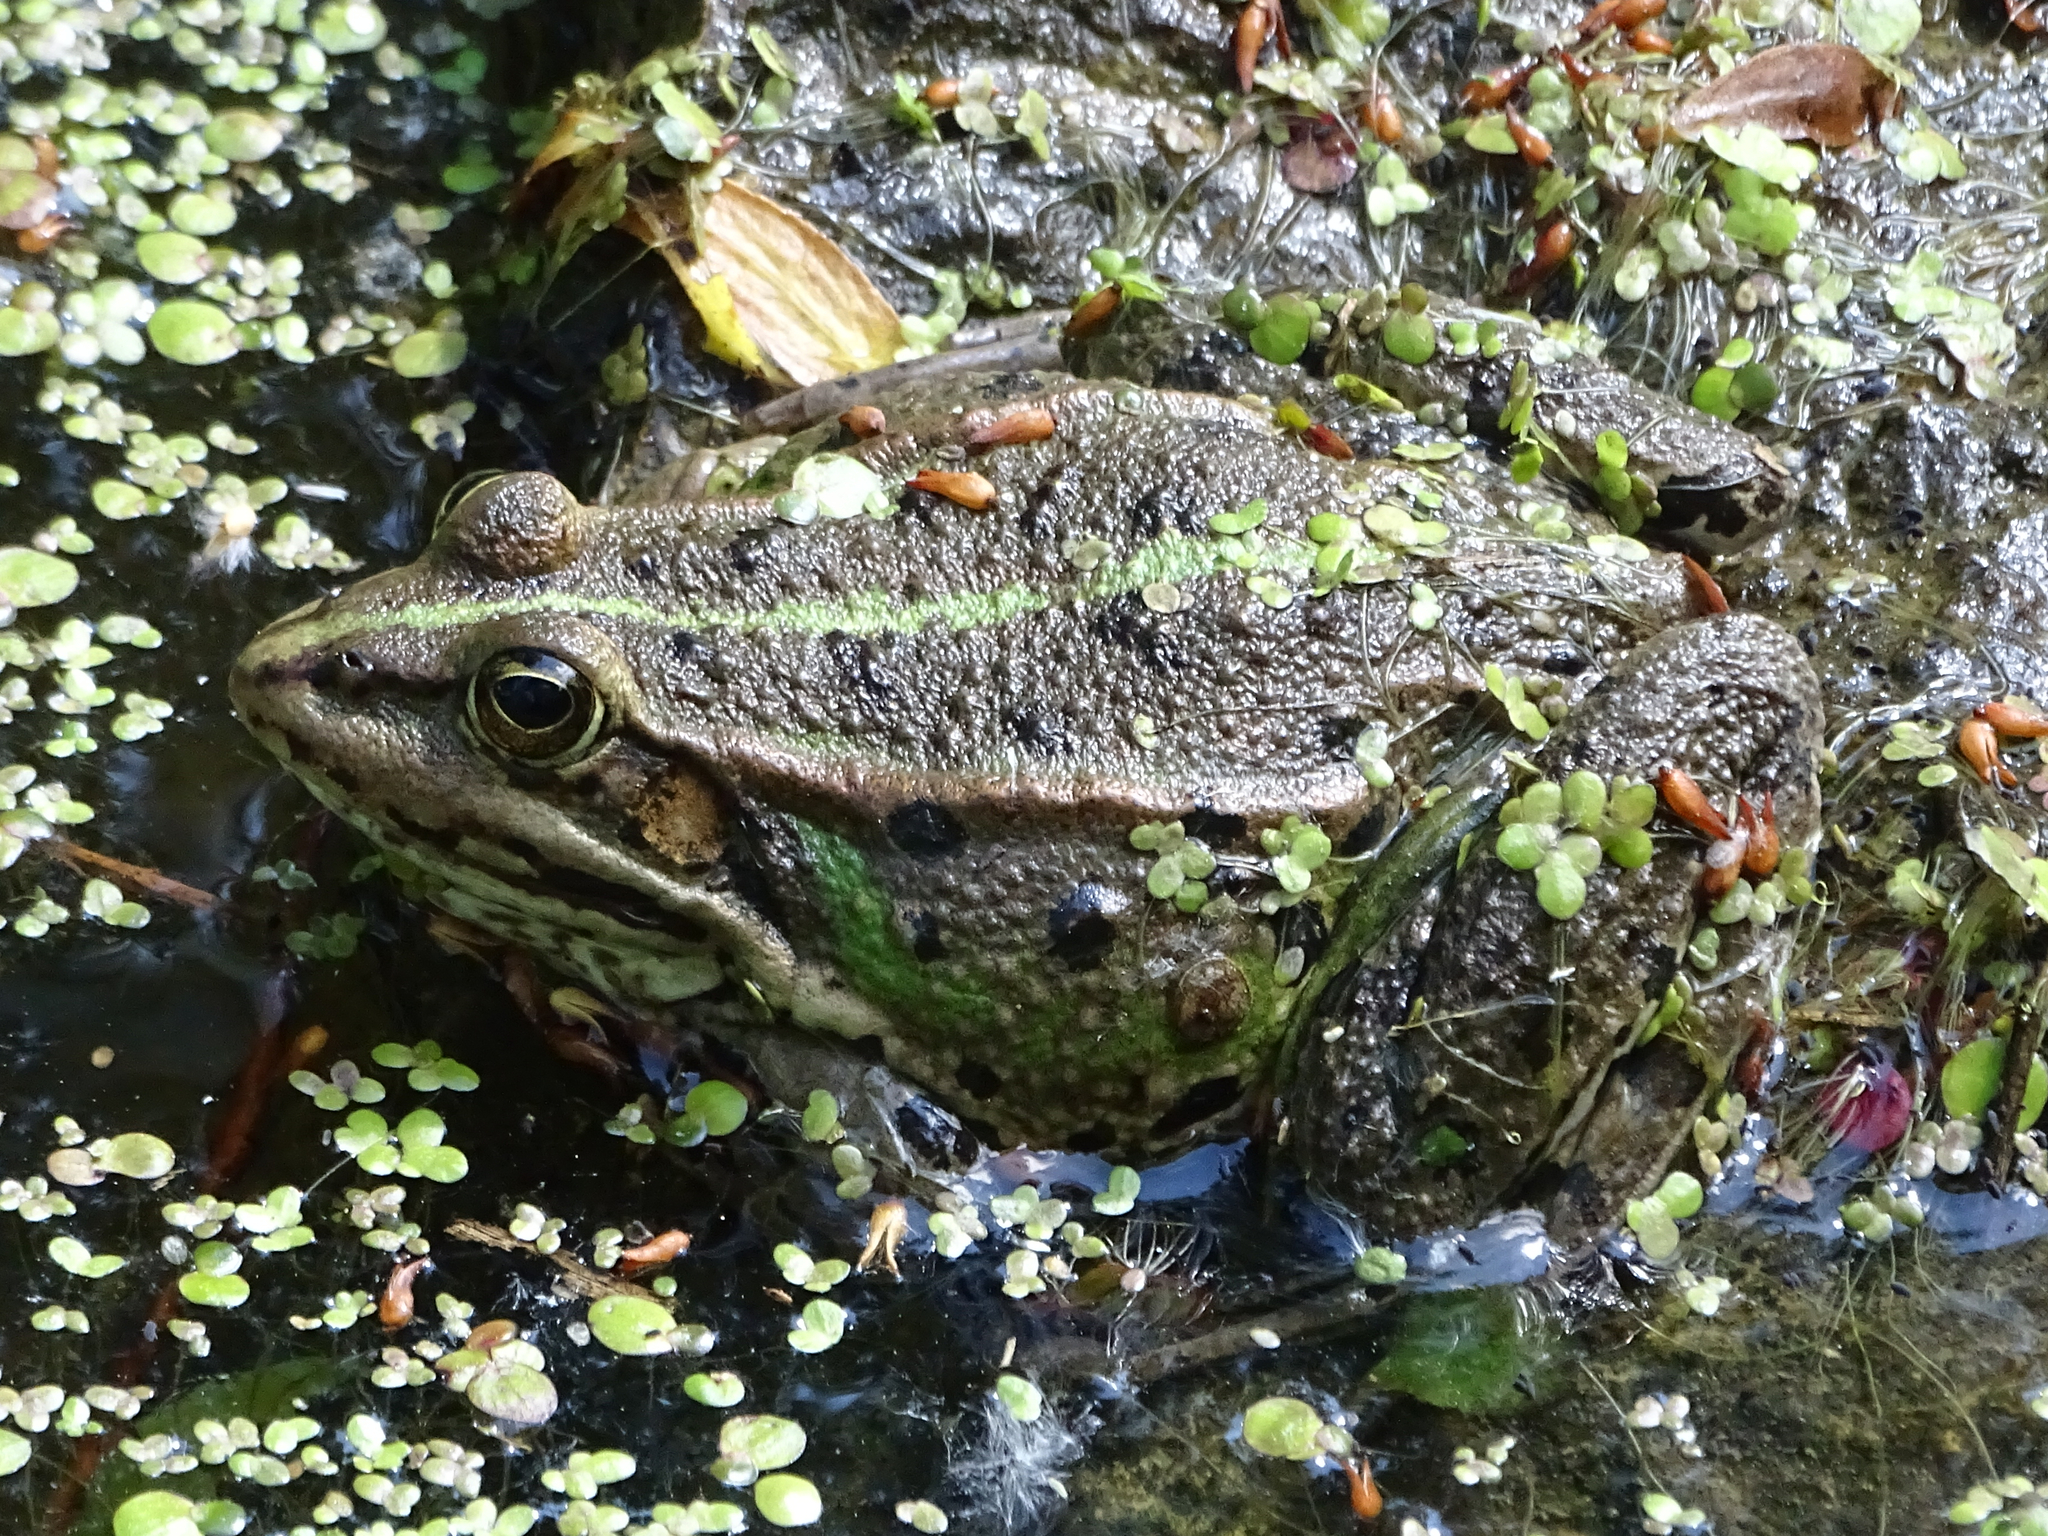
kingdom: Animalia
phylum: Chordata
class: Amphibia
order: Anura
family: Ranidae
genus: Pelophylax
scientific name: Pelophylax
